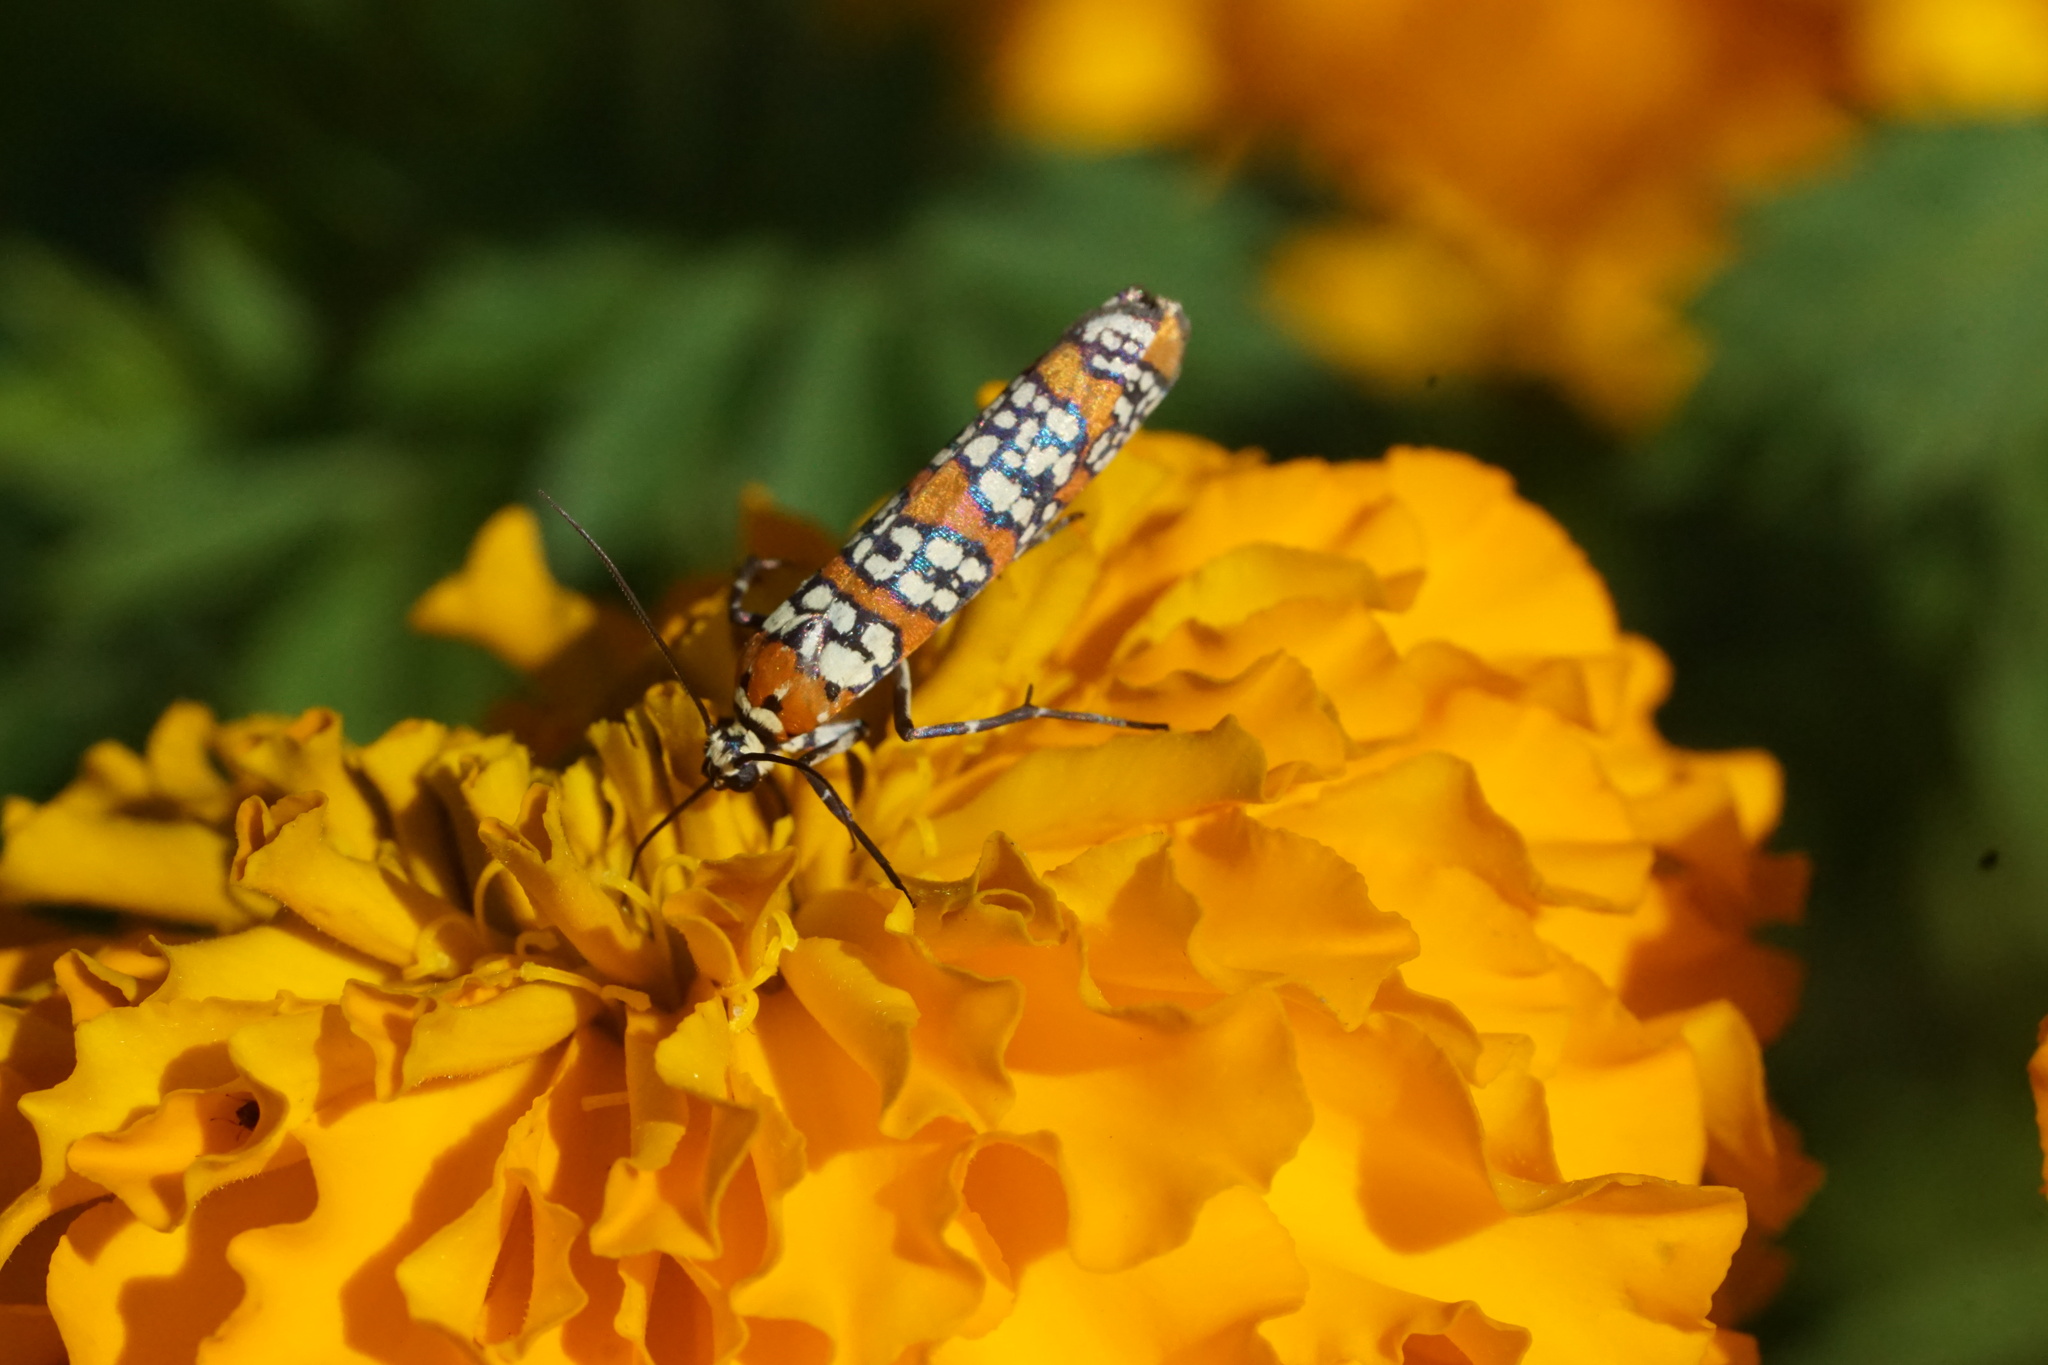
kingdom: Animalia
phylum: Arthropoda
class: Insecta
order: Lepidoptera
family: Attevidae
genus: Atteva
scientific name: Atteva punctella
